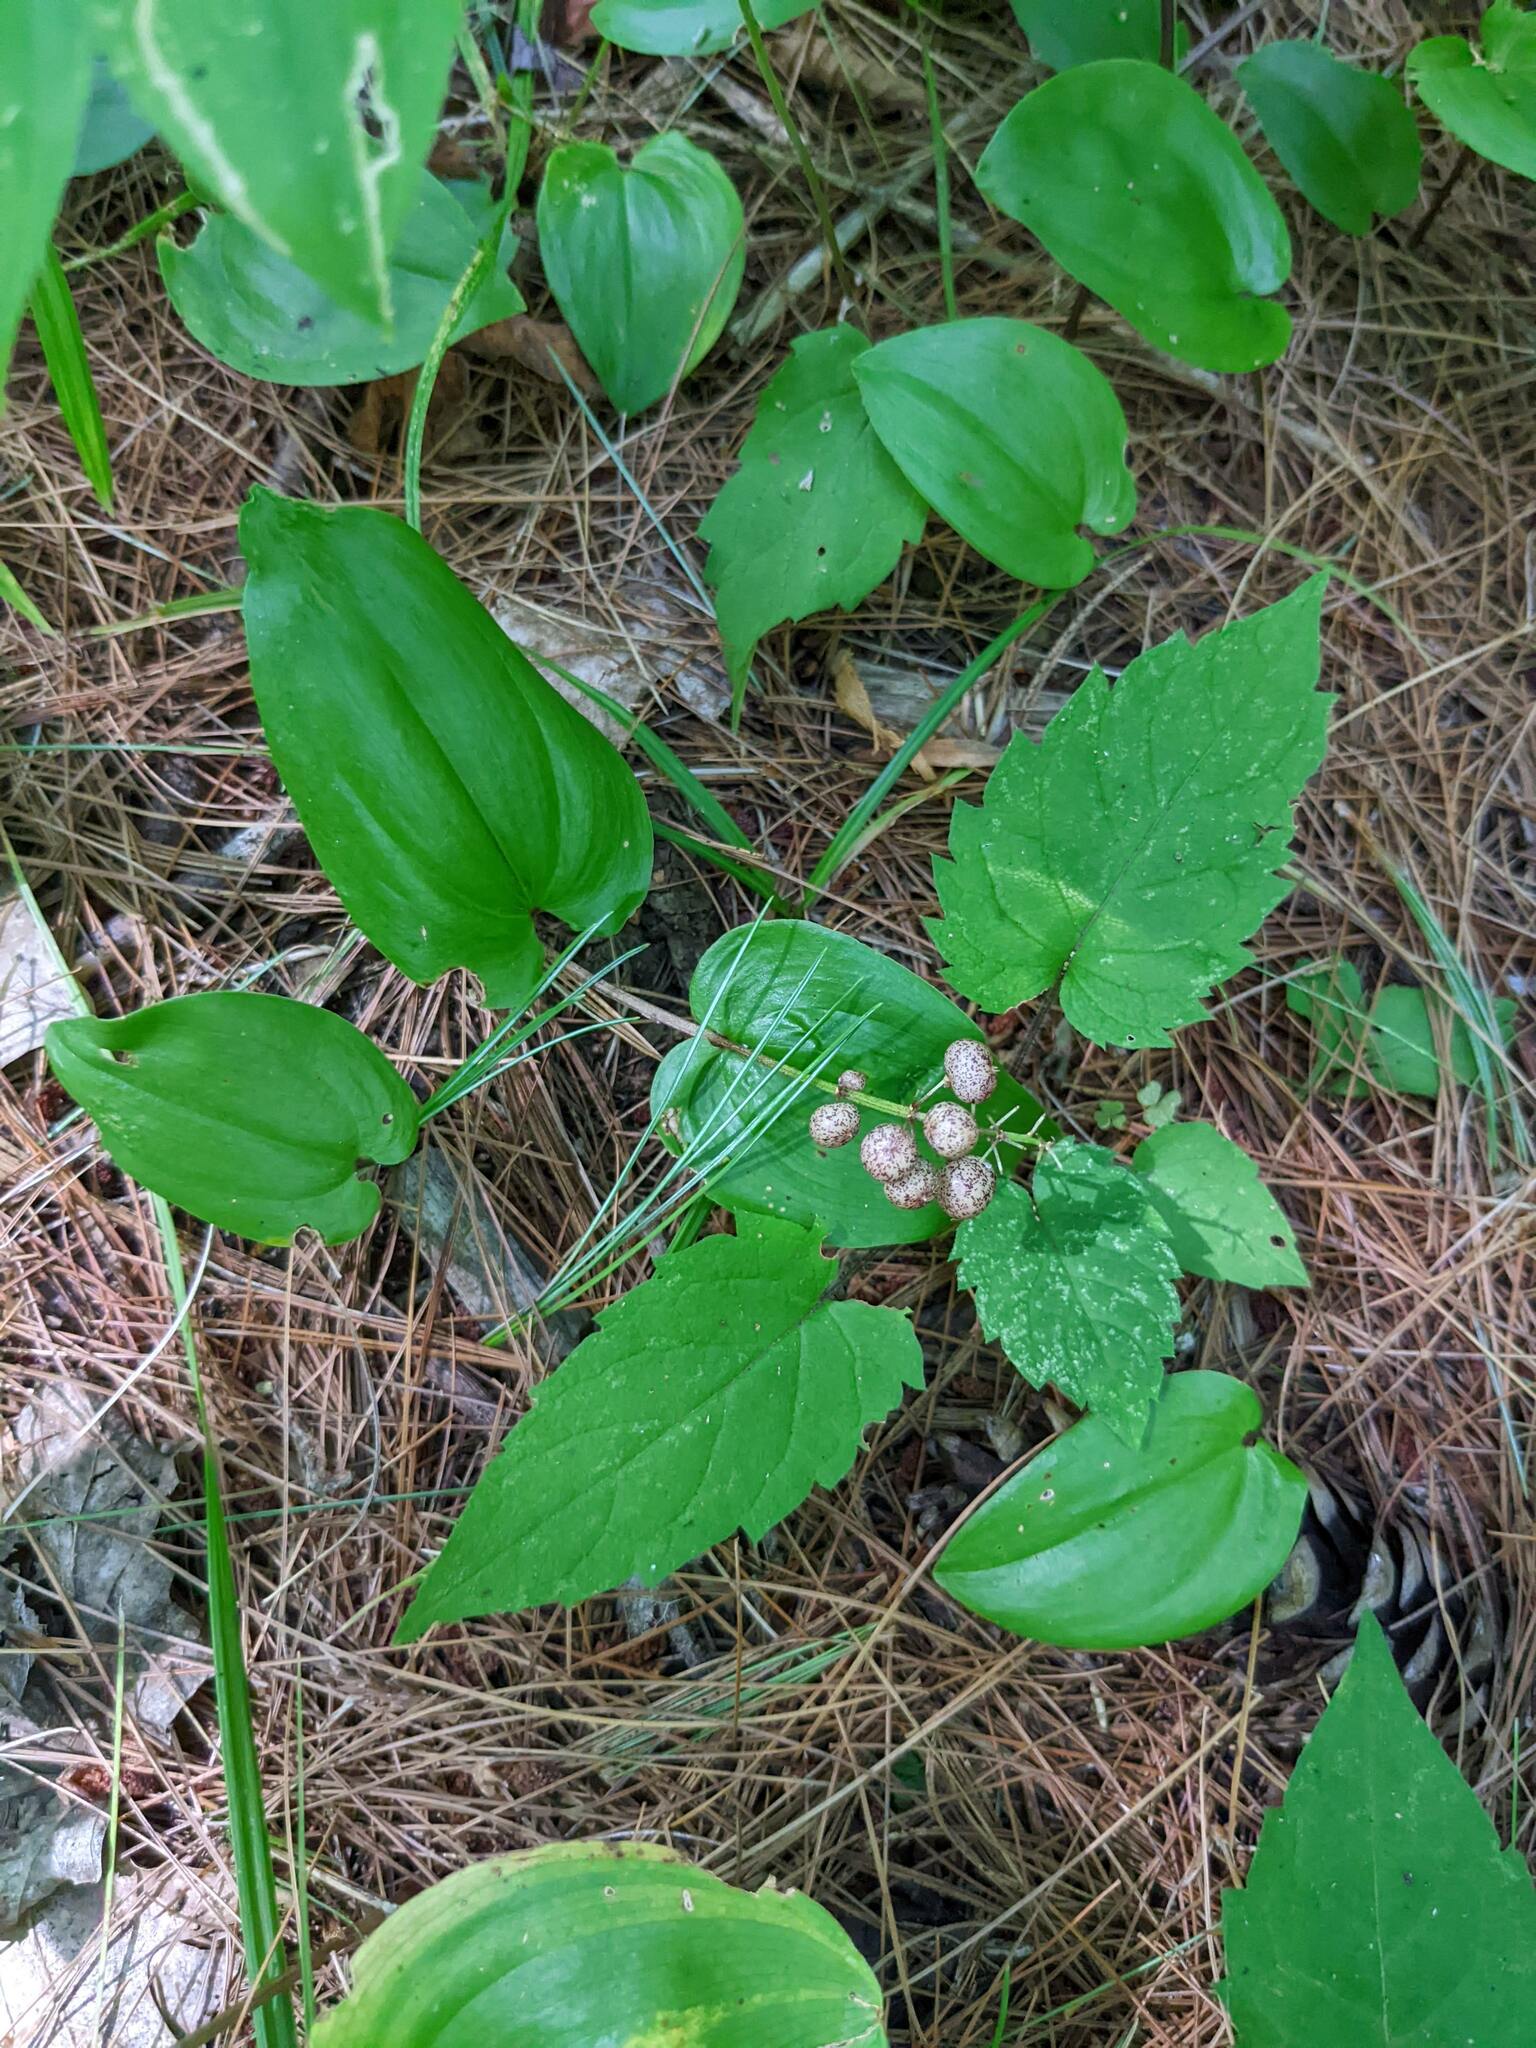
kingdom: Plantae
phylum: Tracheophyta
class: Liliopsida
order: Asparagales
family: Asparagaceae
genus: Maianthemum
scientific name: Maianthemum canadense
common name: False lily-of-the-valley
